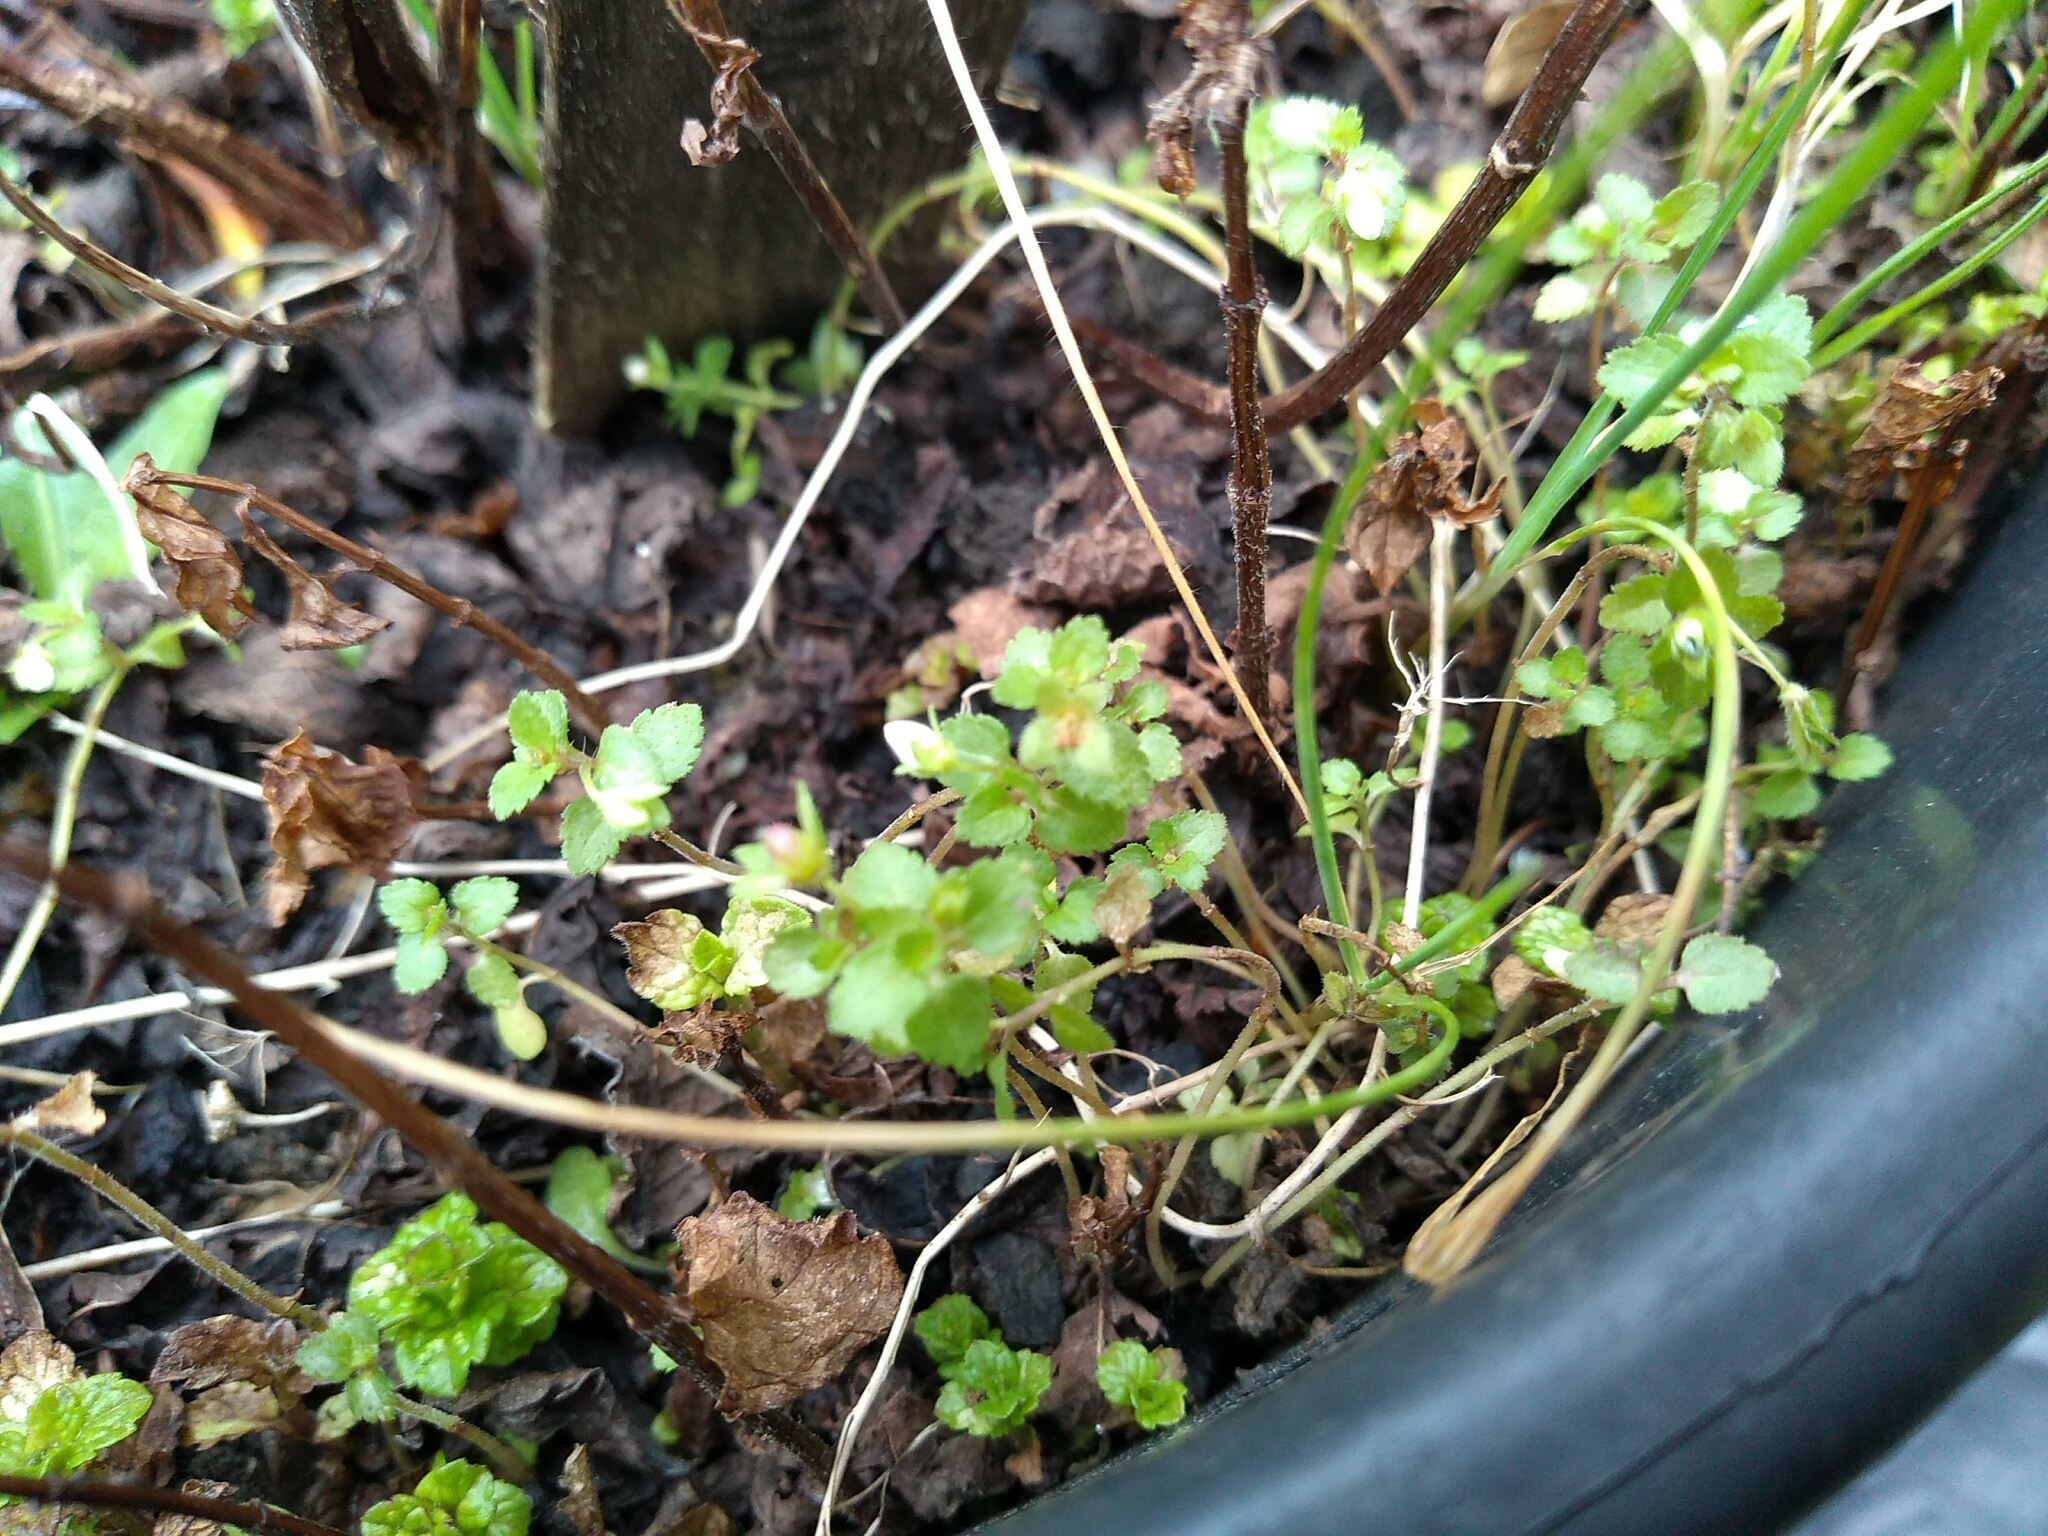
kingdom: Plantae
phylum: Tracheophyta
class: Magnoliopsida
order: Lamiales
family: Plantaginaceae
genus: Veronica
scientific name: Veronica agrestis
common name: Green field-speedwell
